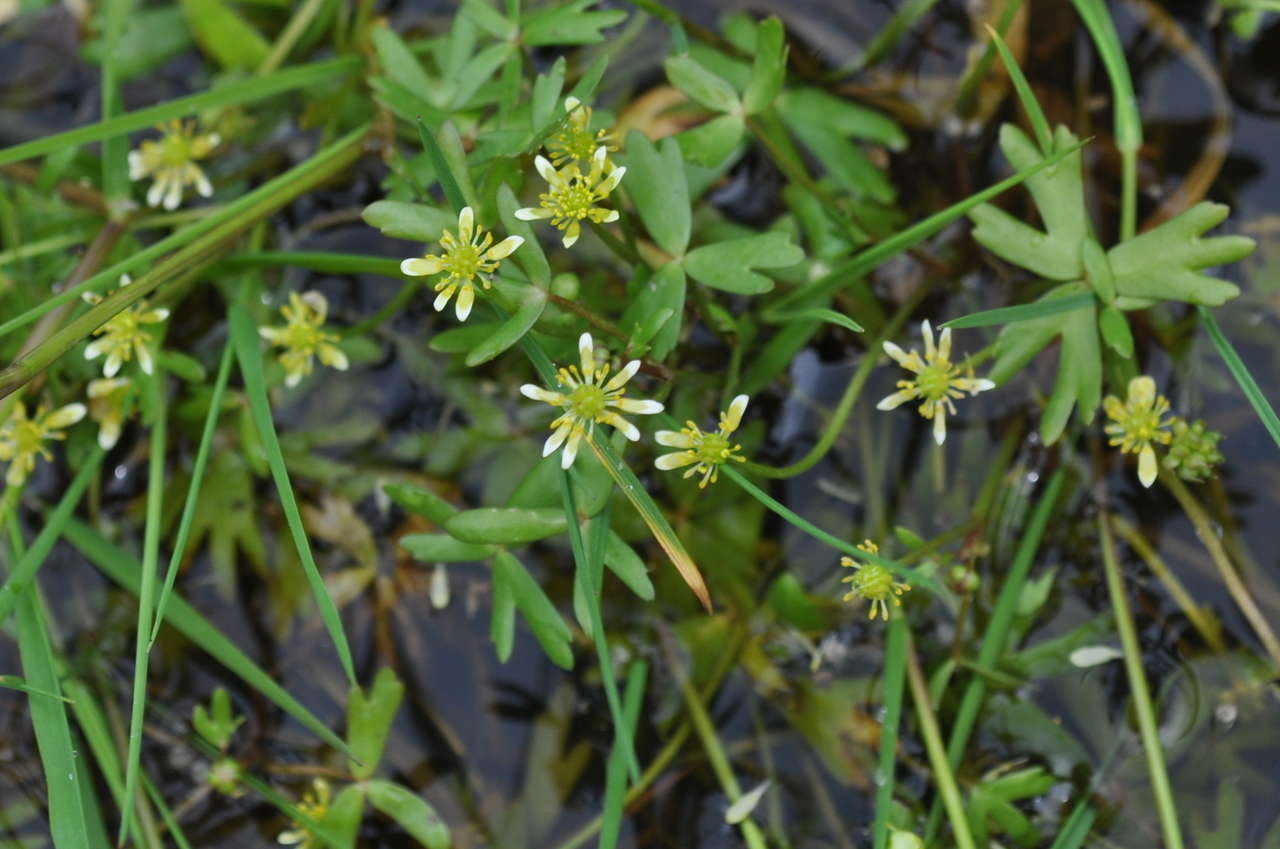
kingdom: Plantae
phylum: Tracheophyta
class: Magnoliopsida
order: Ranunculales
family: Ranunculaceae
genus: Ranunculus
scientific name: Ranunculus amphitrichus
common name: Small river buttercup
